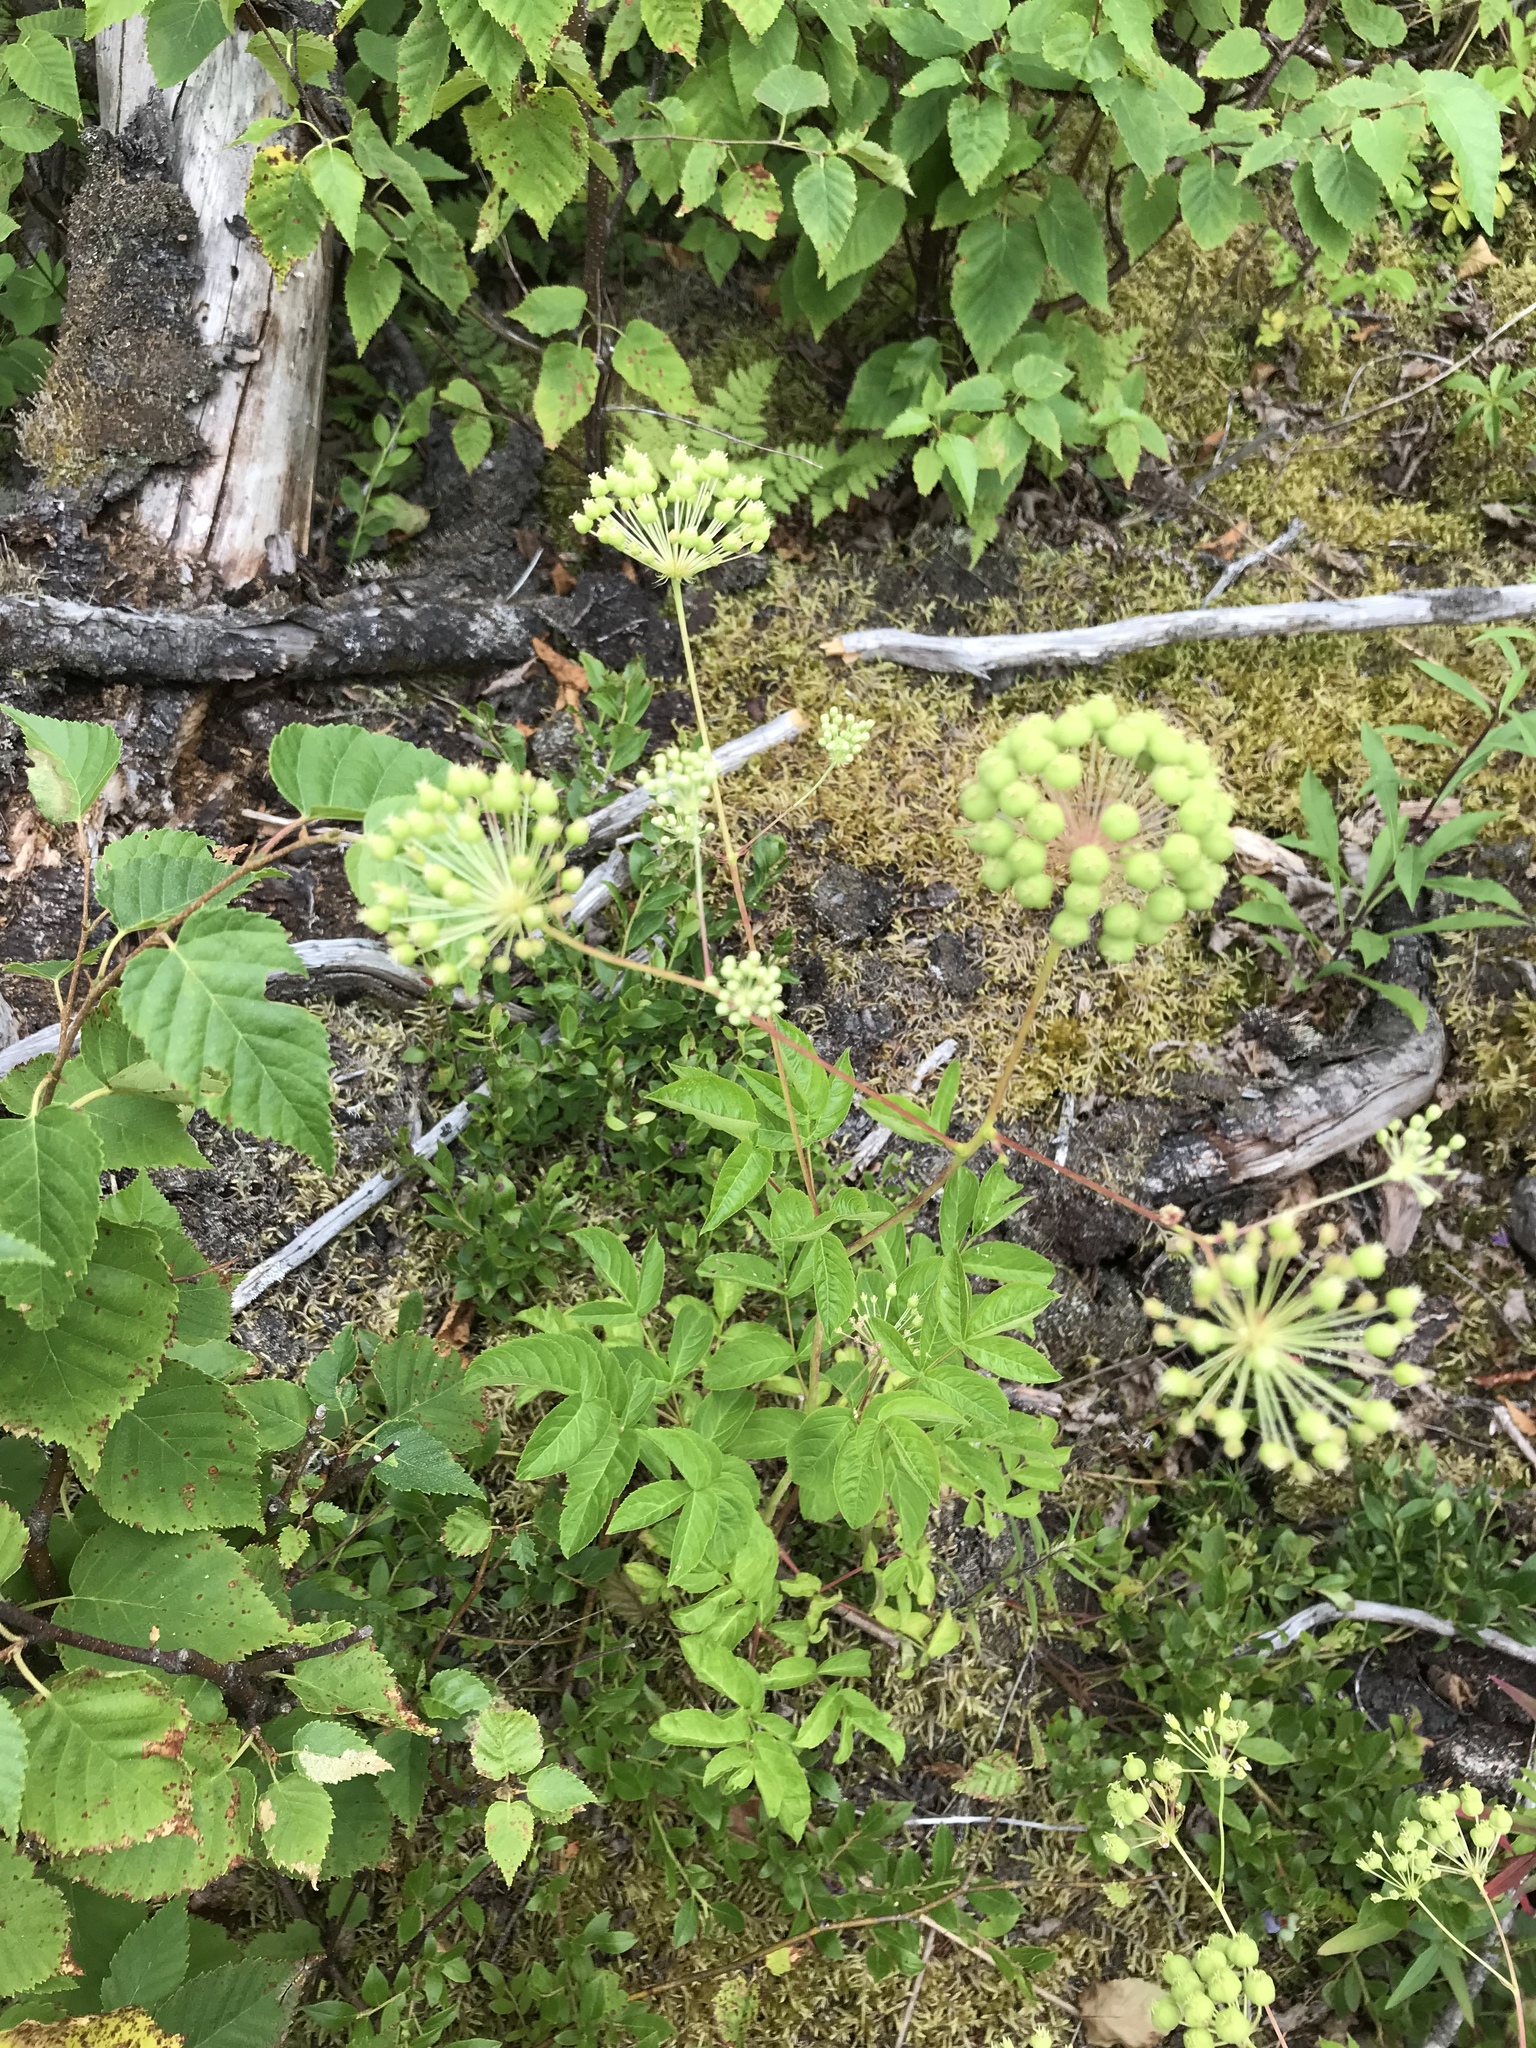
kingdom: Plantae
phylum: Tracheophyta
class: Magnoliopsida
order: Apiales
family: Araliaceae
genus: Aralia
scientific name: Aralia hispida
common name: Bristly sarsaparilla
